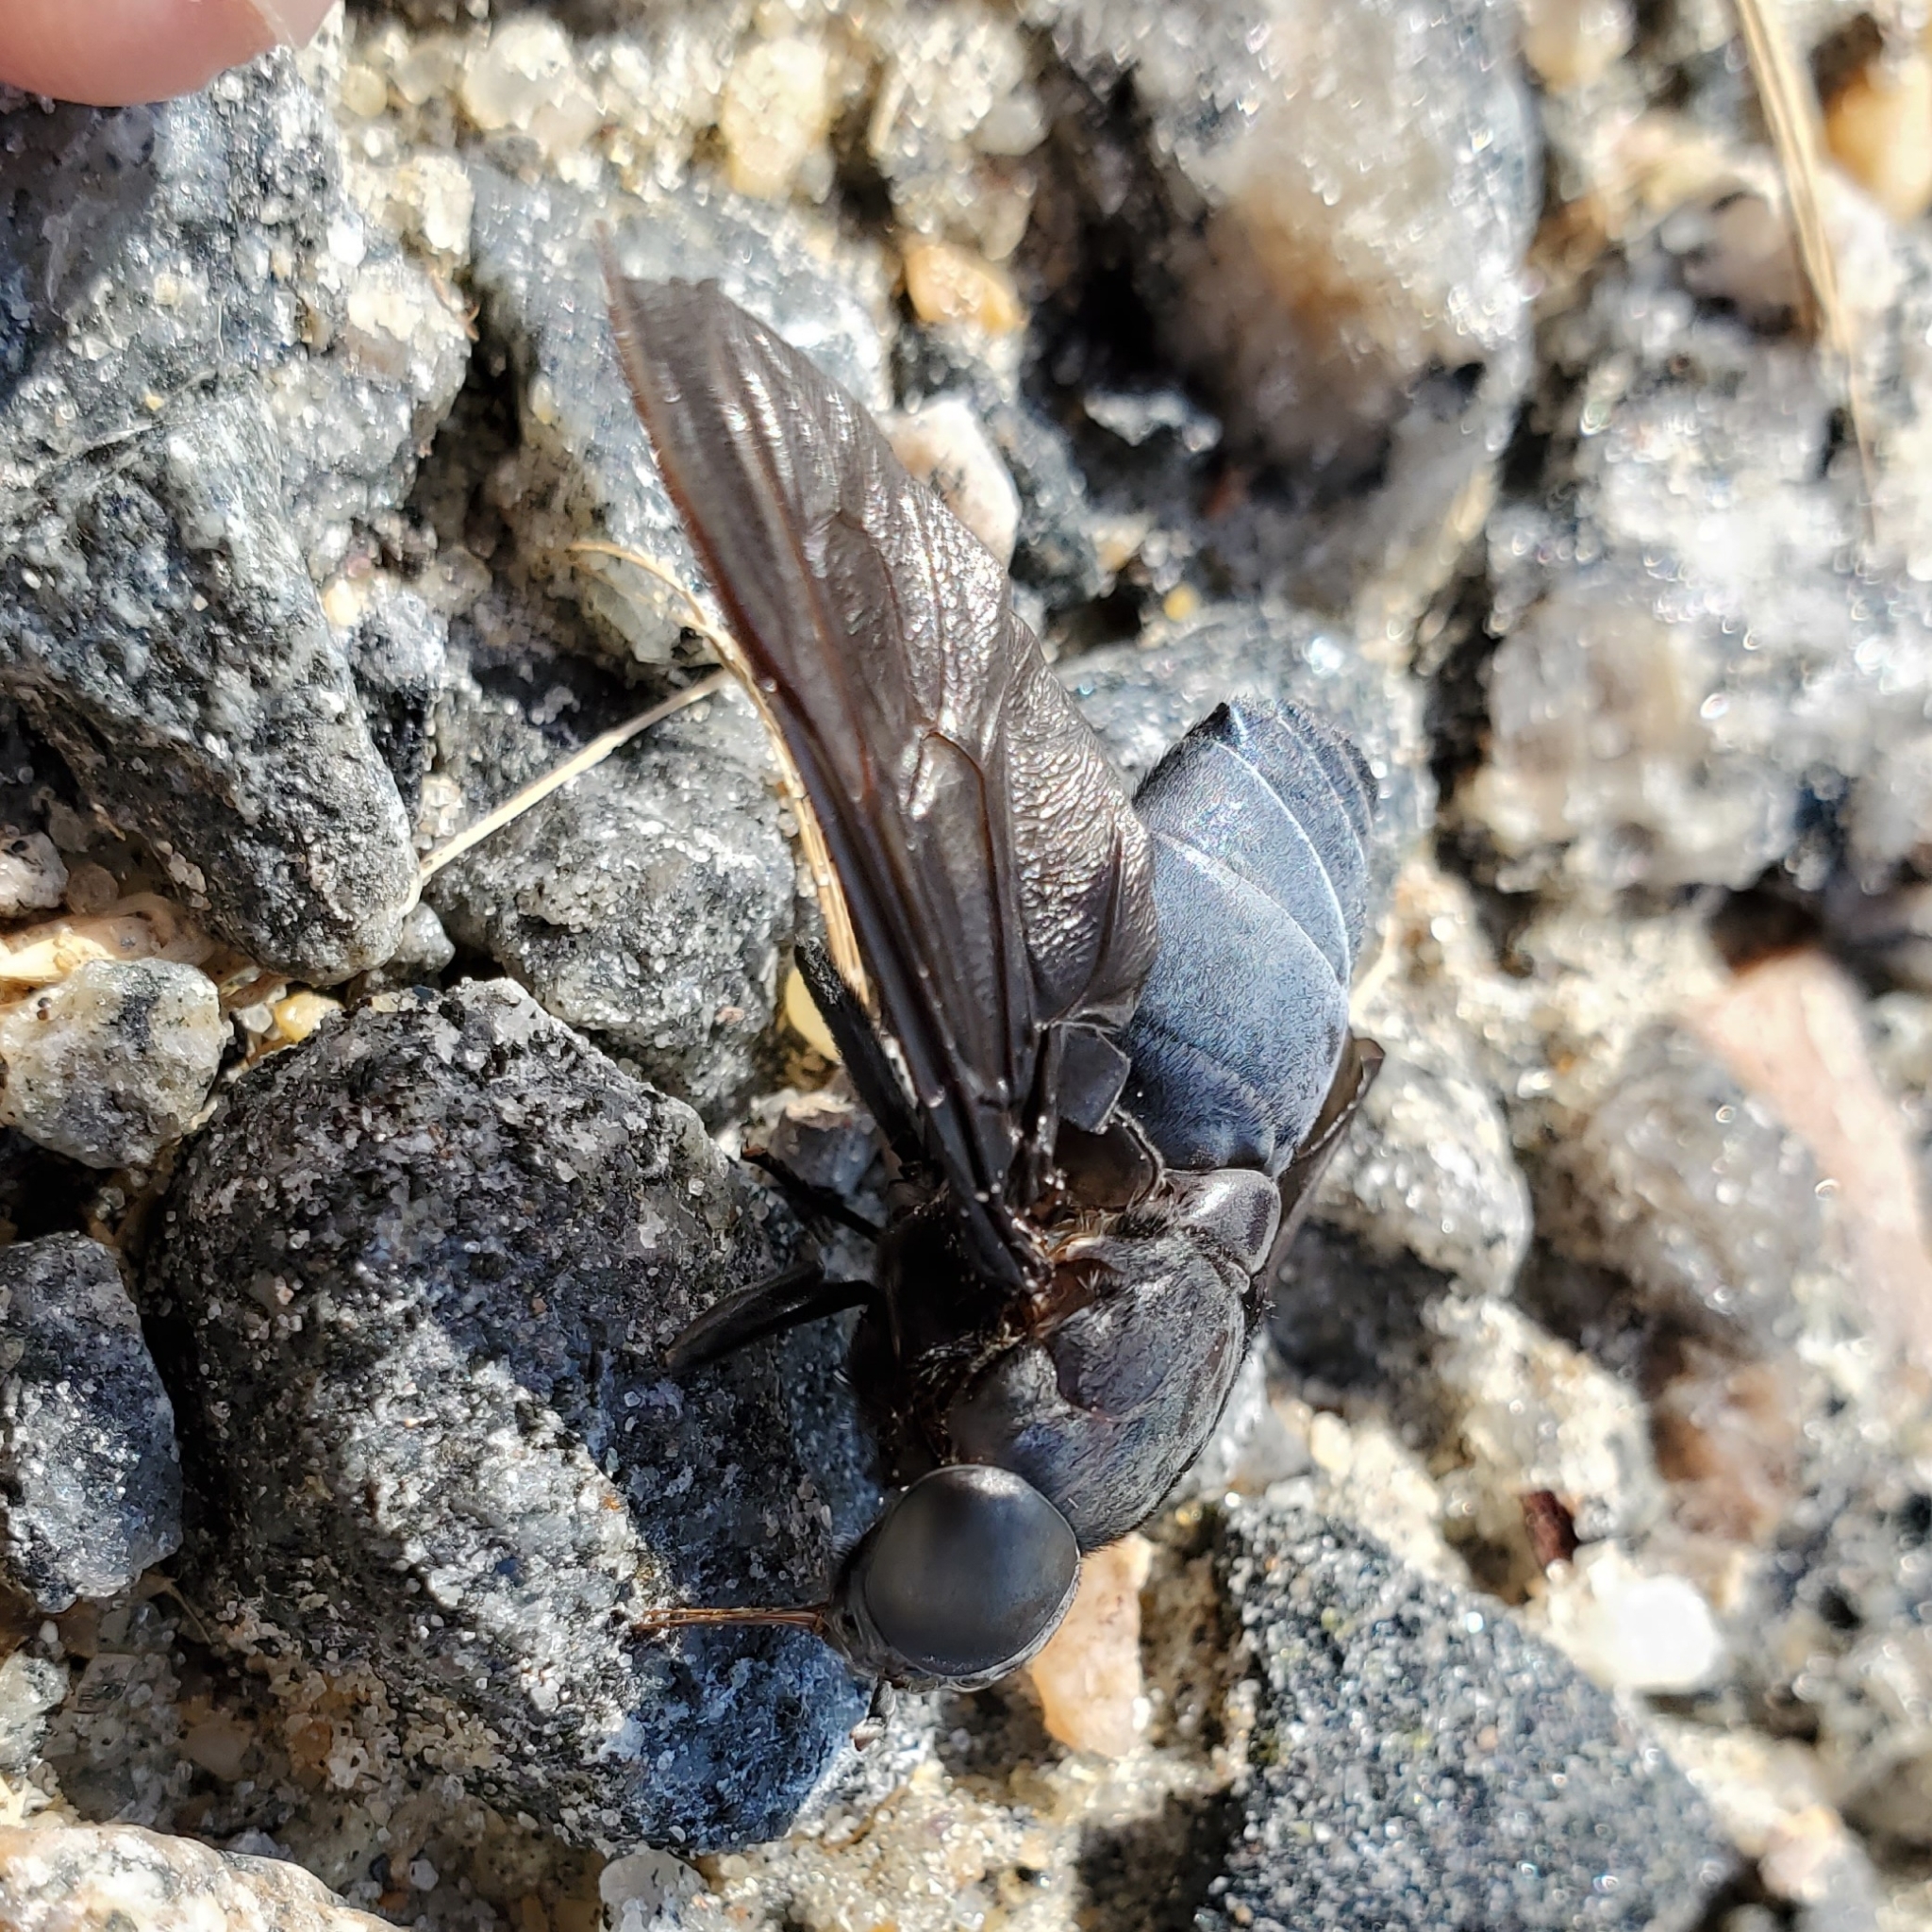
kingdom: Animalia
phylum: Arthropoda
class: Insecta
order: Diptera
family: Tabanidae
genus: Tabanus
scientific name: Tabanus atratus
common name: Black horse fly
